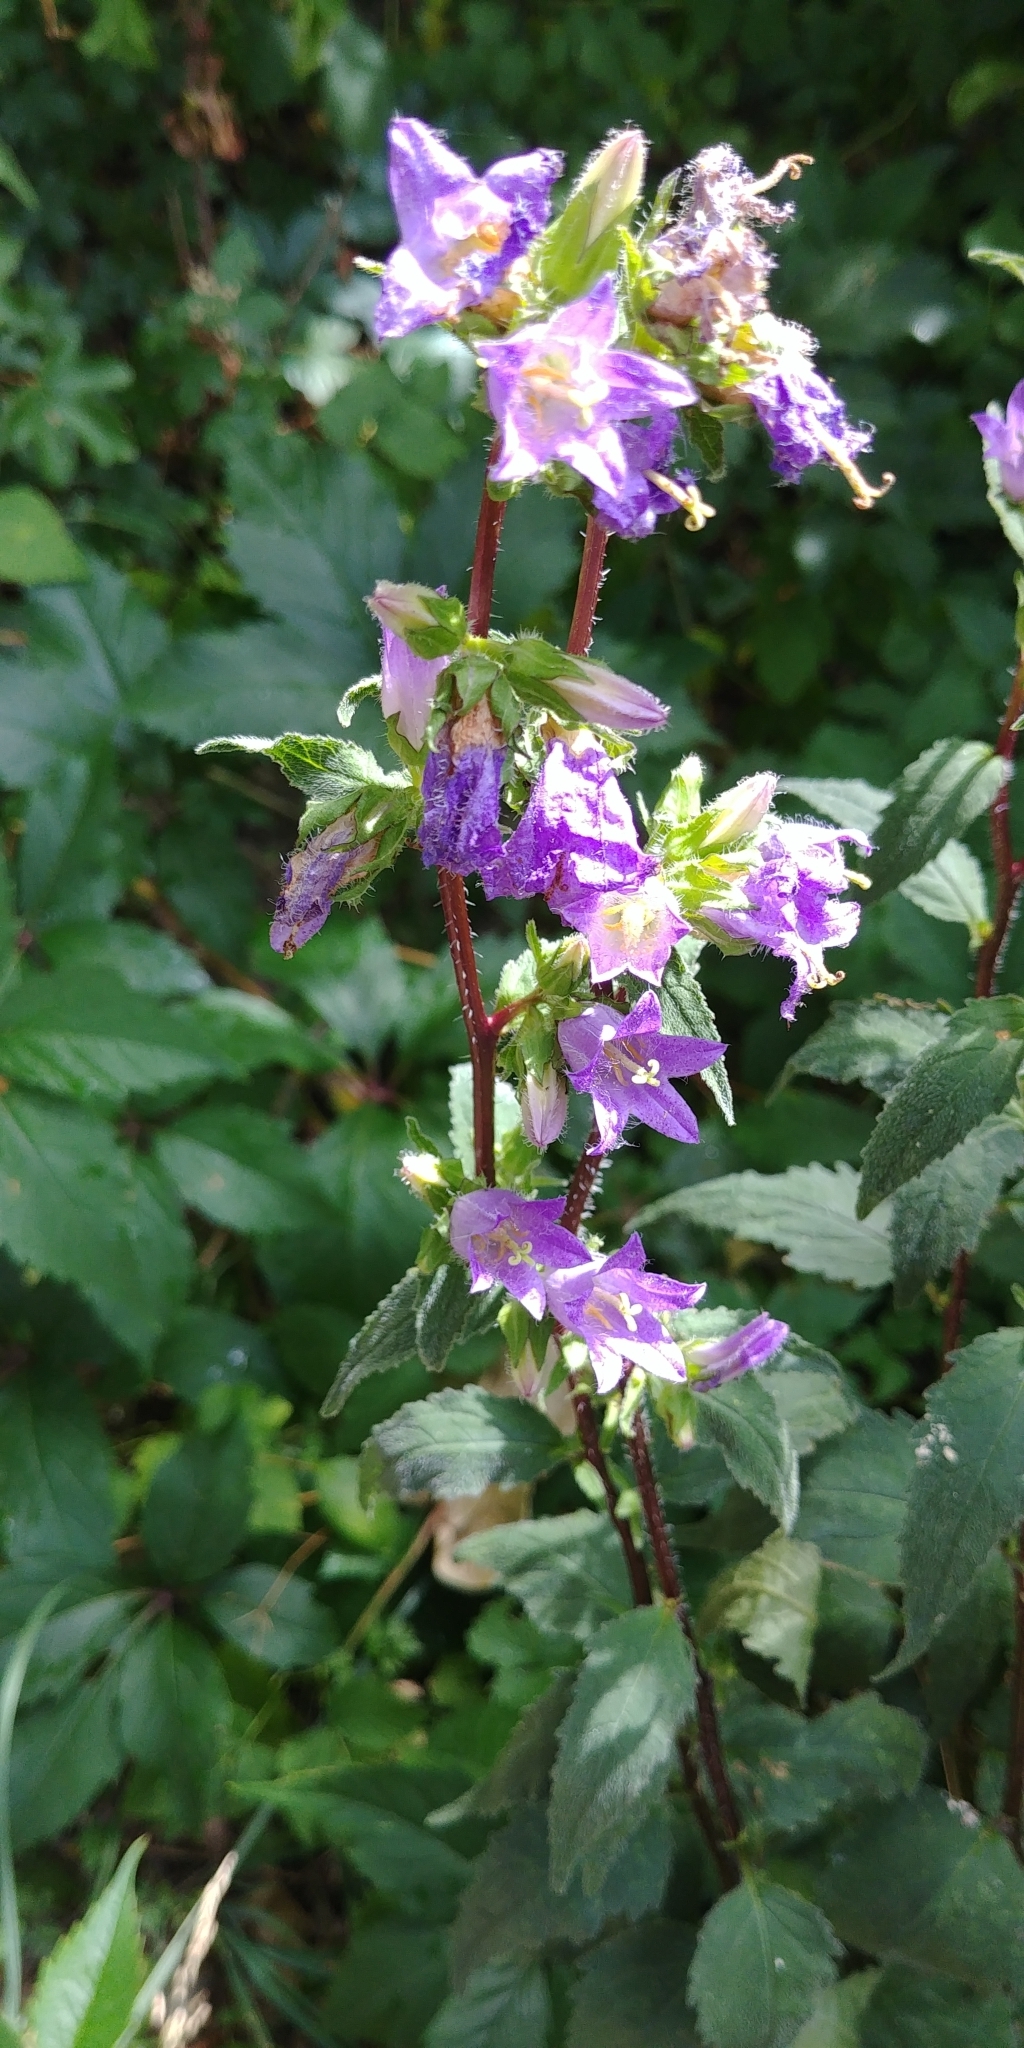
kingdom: Plantae
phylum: Tracheophyta
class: Magnoliopsida
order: Asterales
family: Campanulaceae
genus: Campanula
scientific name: Campanula trachelium
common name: Nettle-leaved bellflower
